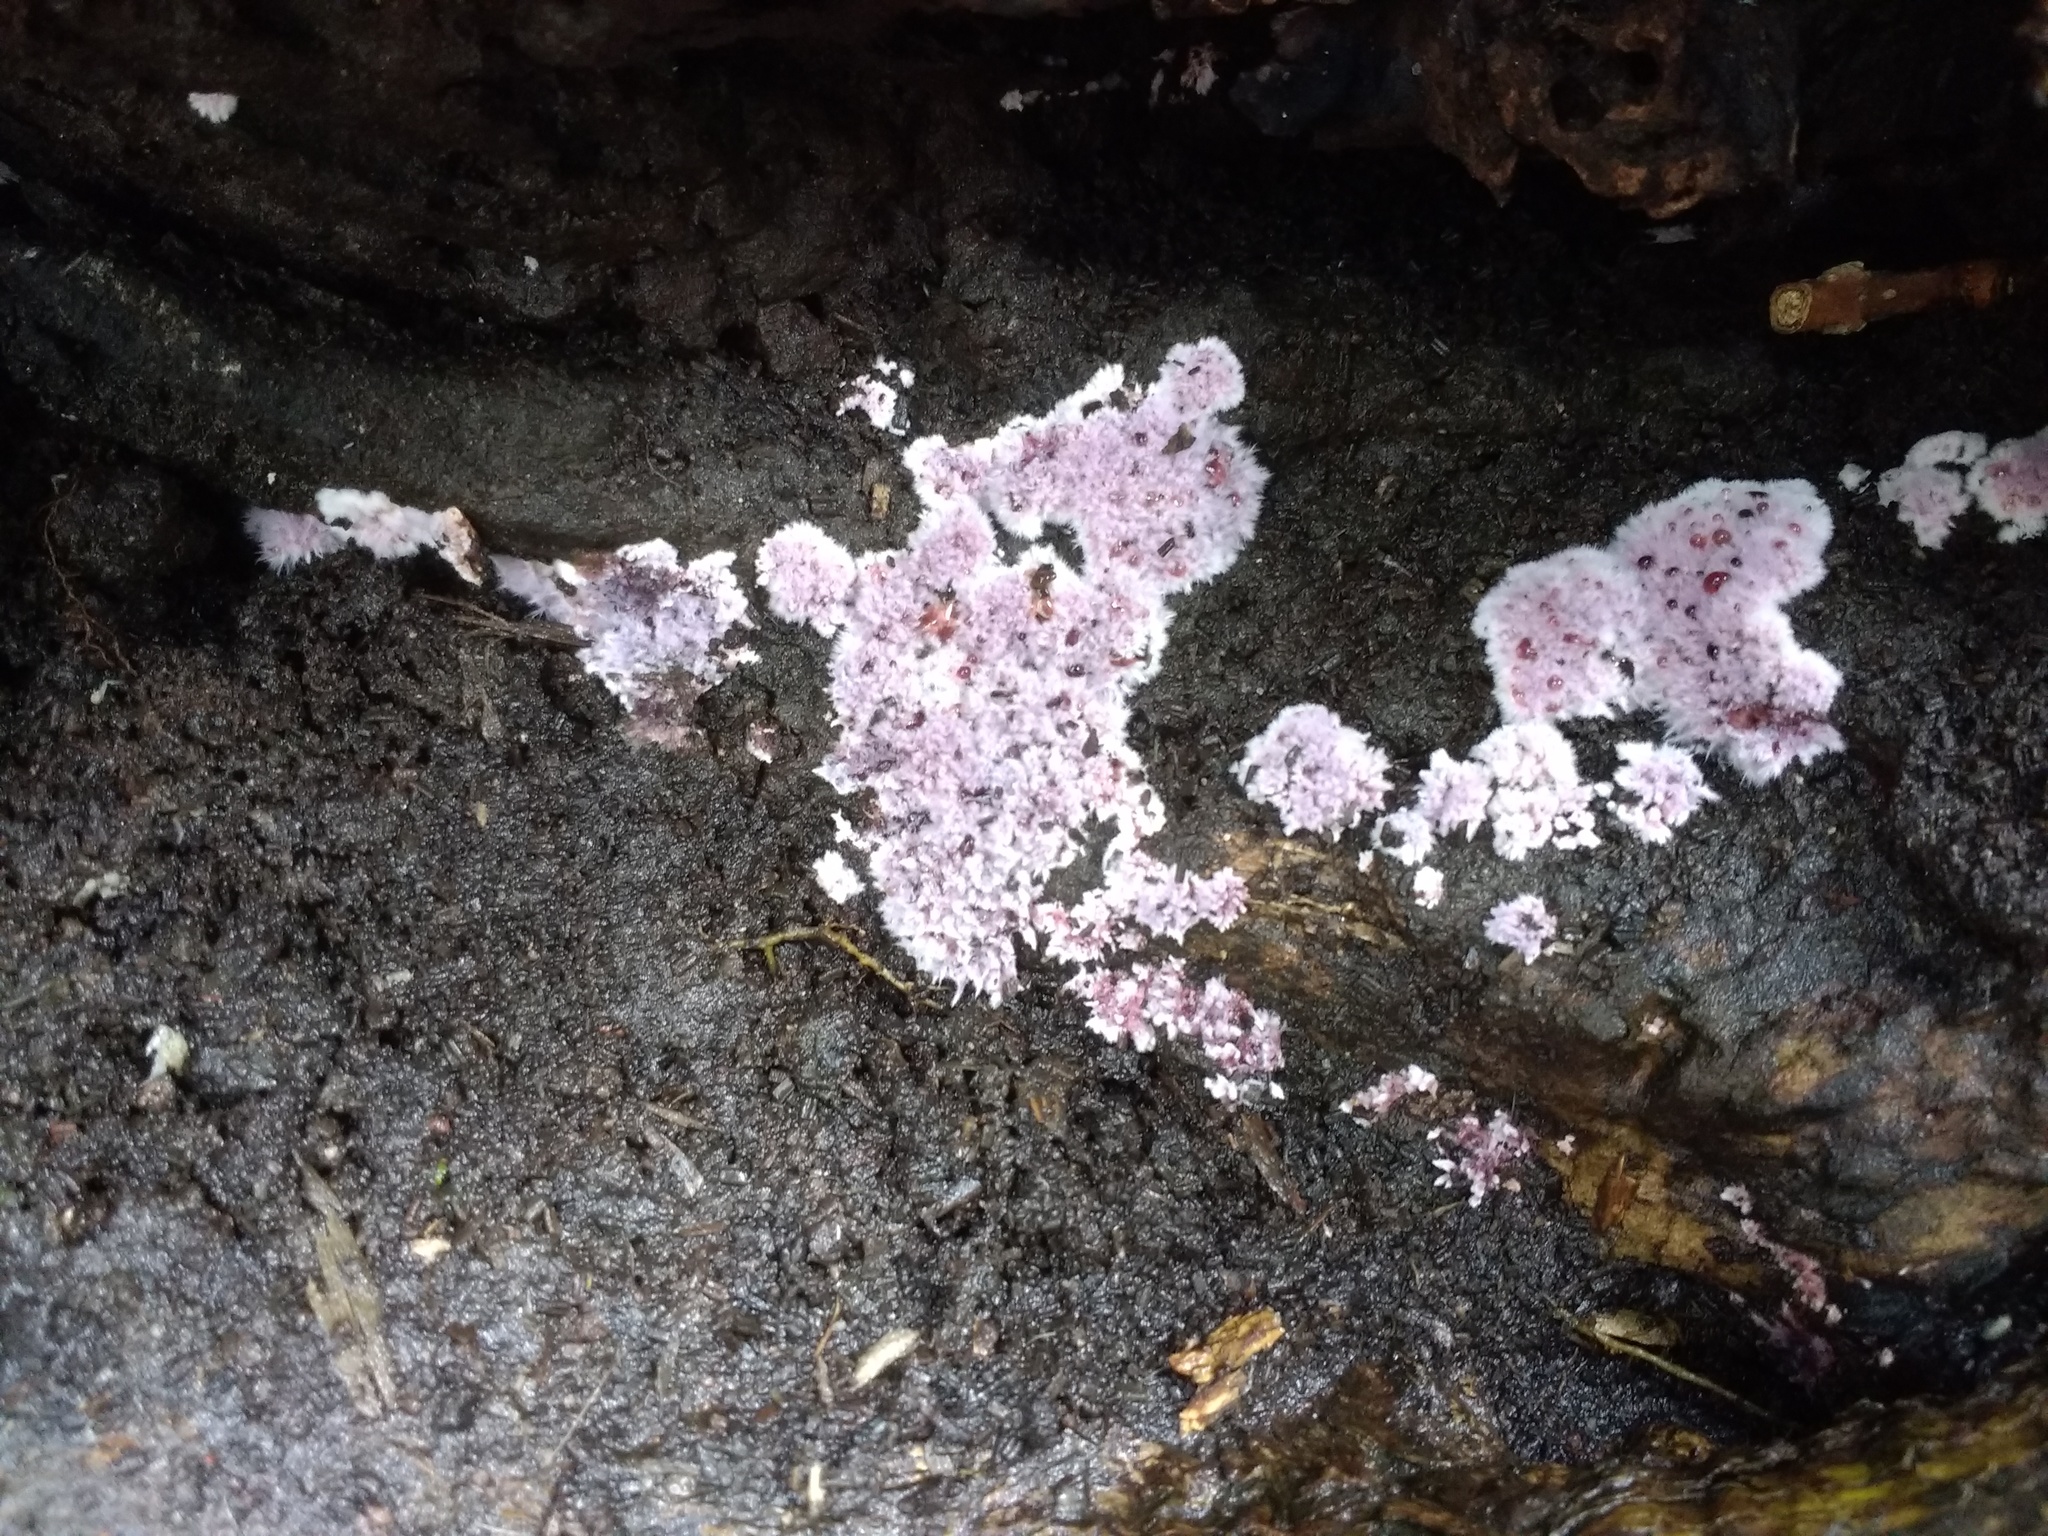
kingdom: Fungi
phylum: Basidiomycota
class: Agaricomycetes
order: Corticiales
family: Punctulariaceae
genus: Punctularia
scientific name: Punctularia atropurpurascens
